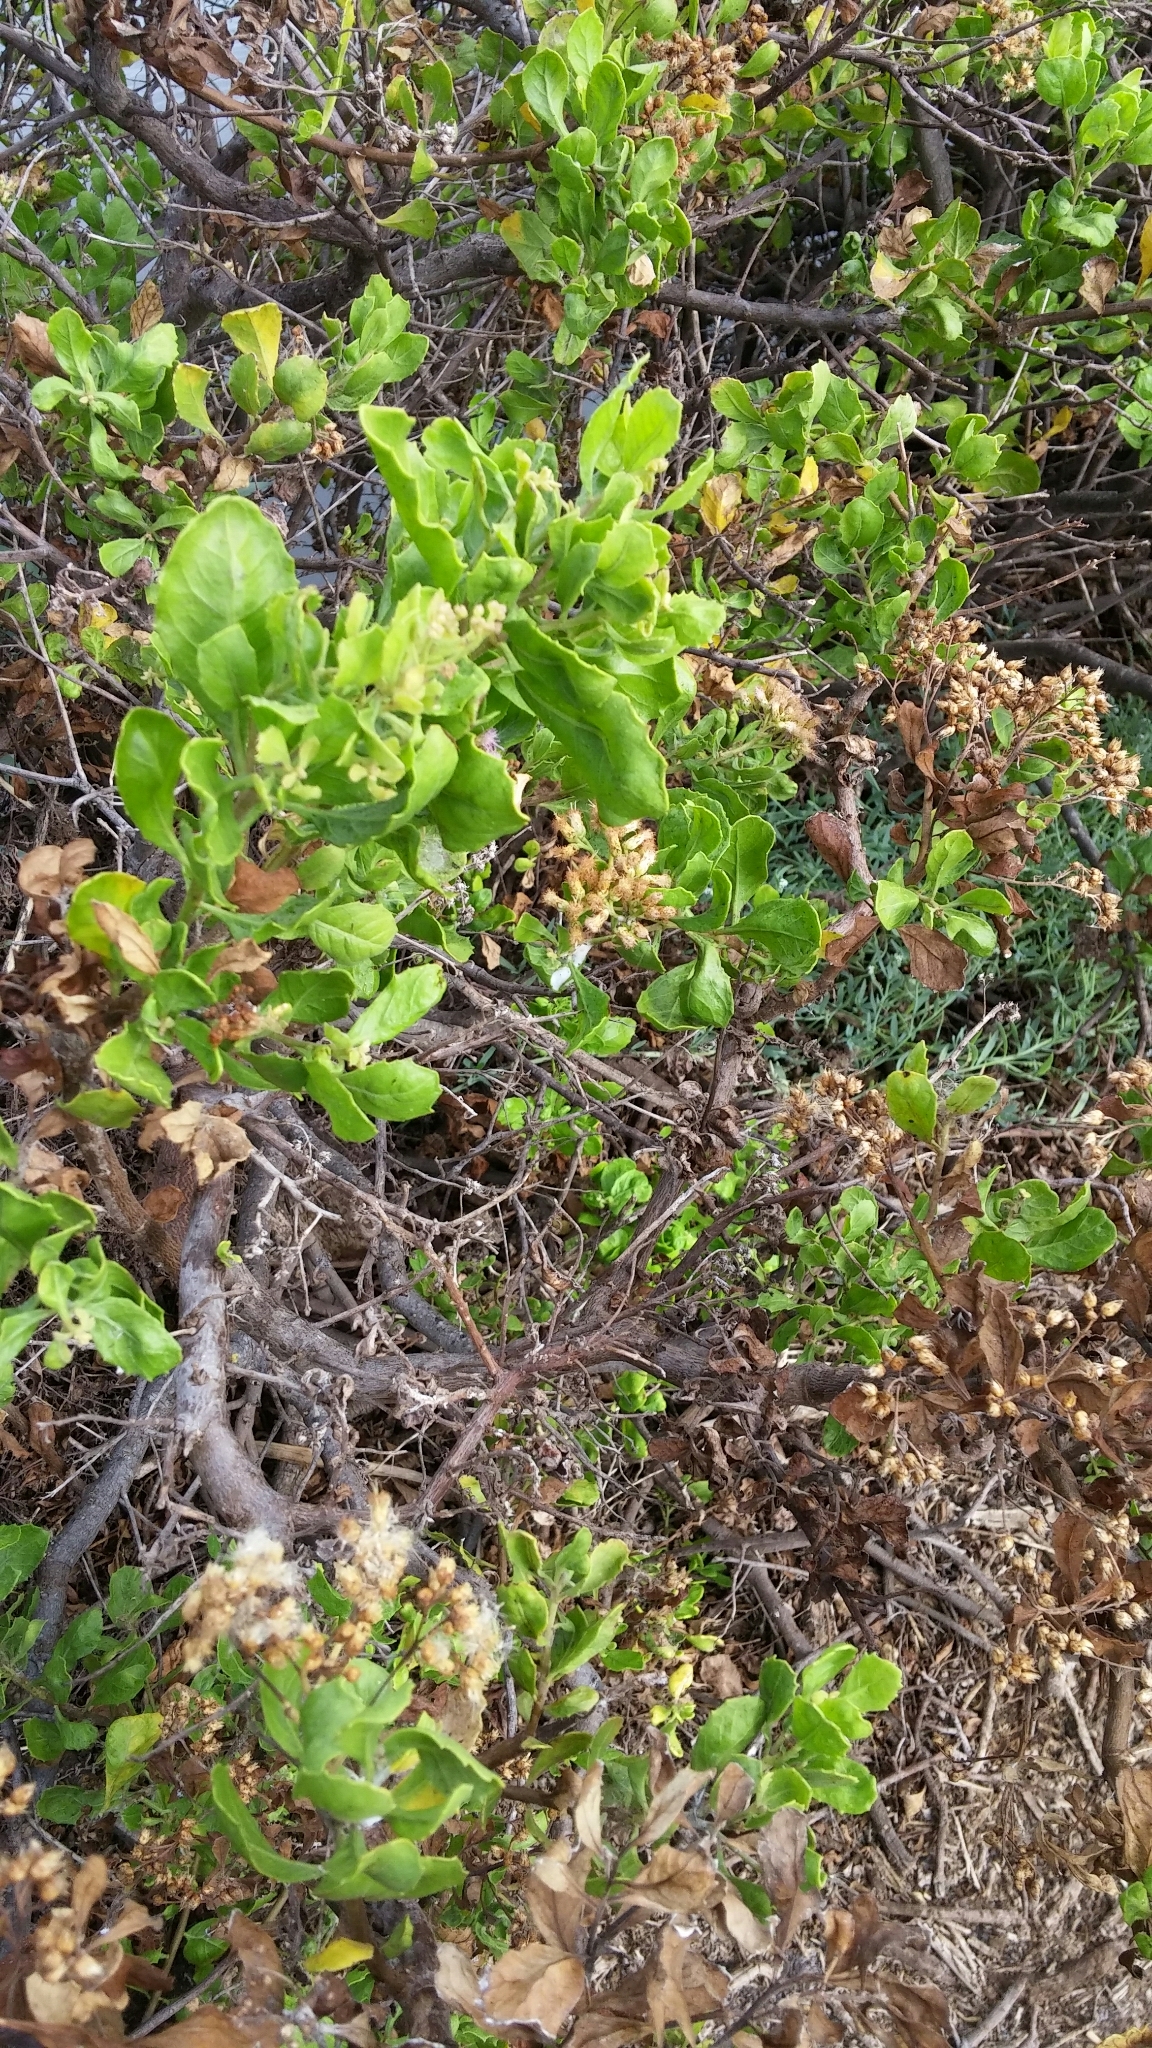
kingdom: Plantae
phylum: Tracheophyta
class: Magnoliopsida
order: Asterales
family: Asteraceae
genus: Pluchea
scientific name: Pluchea indica
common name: Indian fleabane
